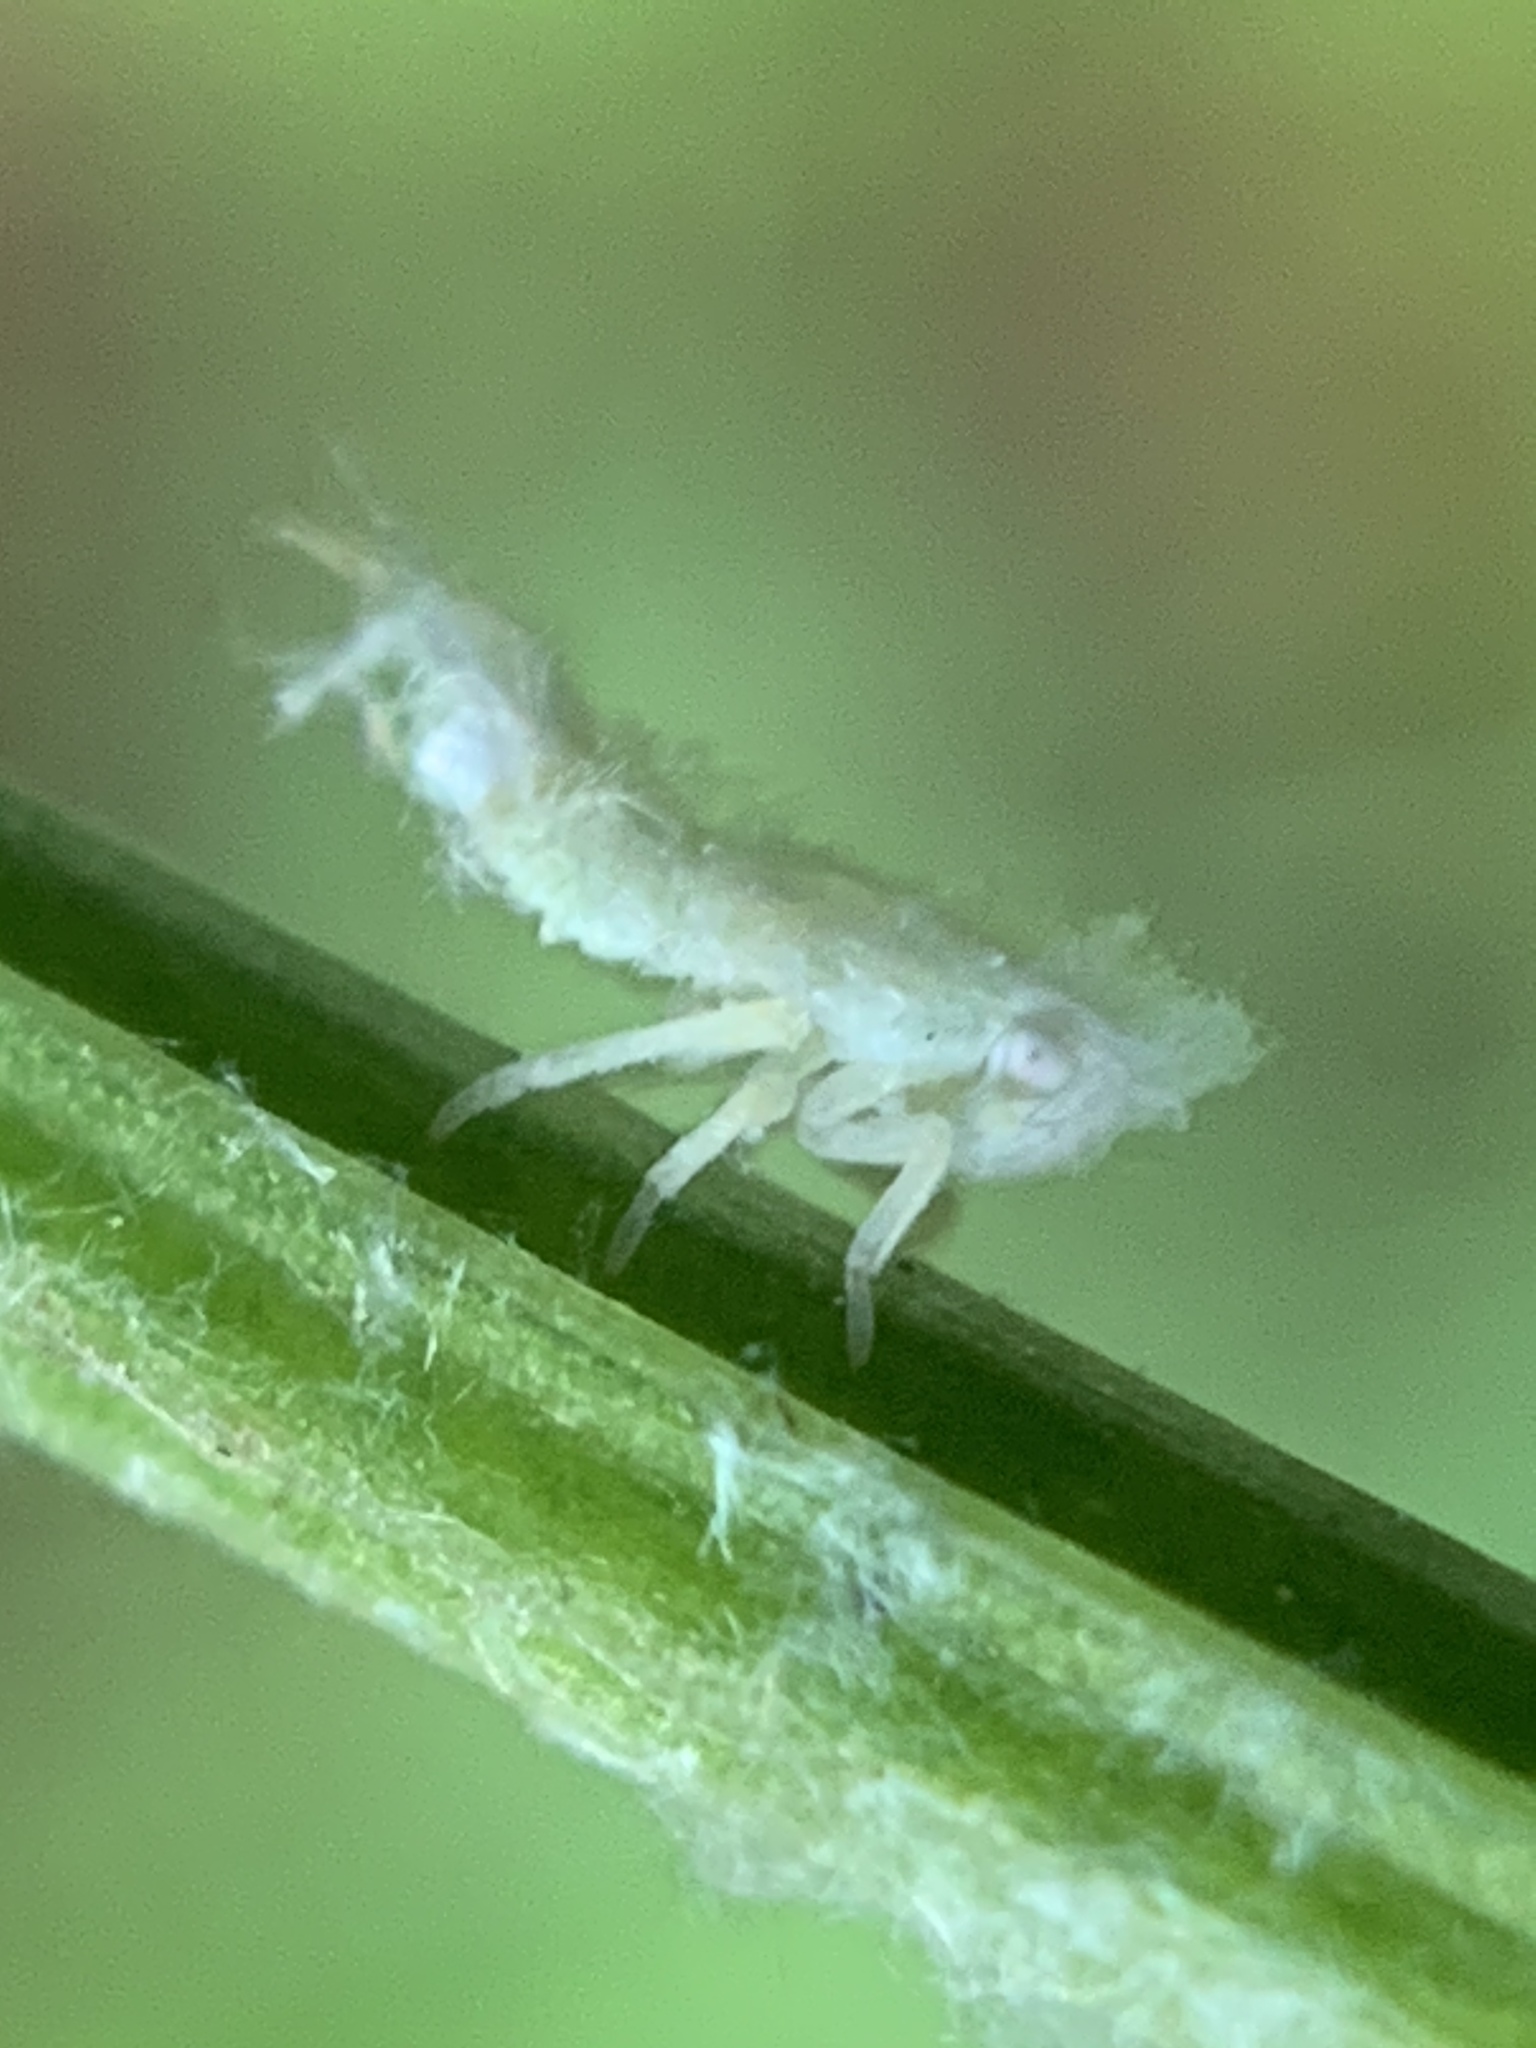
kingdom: Animalia
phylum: Arthropoda
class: Insecta
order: Hemiptera
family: Flatidae
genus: Metcalfa
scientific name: Metcalfa pruinosa
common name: Citrus flatid planthopper
